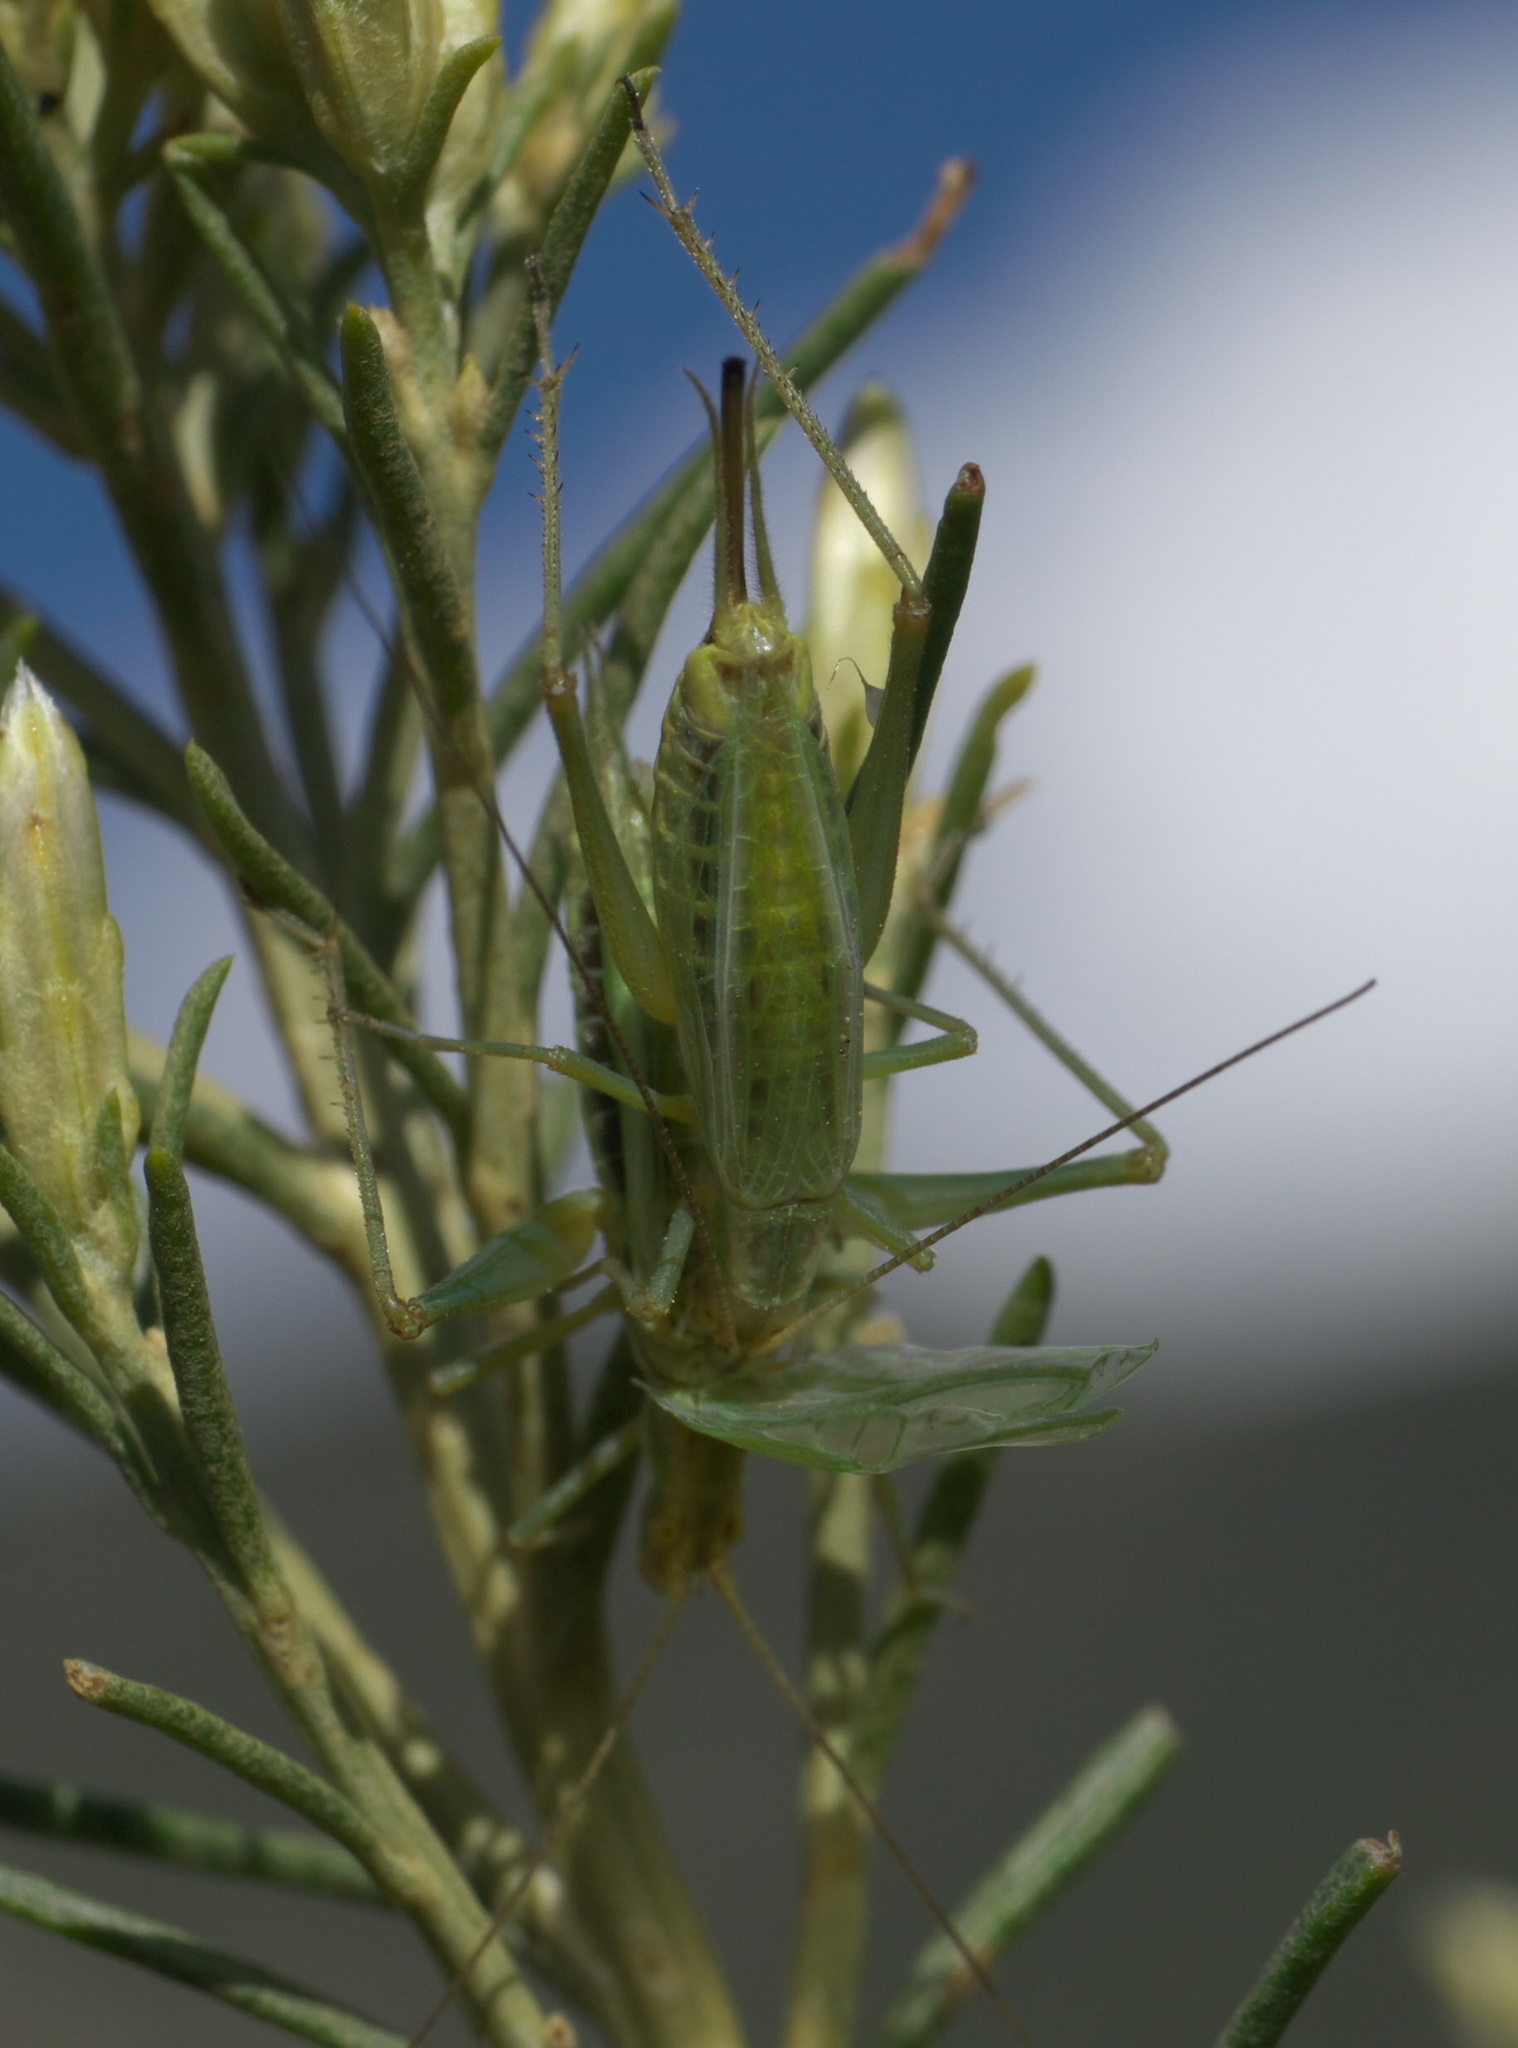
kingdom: Animalia
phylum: Arthropoda
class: Insecta
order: Orthoptera
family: Gryllidae
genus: Oecanthus
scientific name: Oecanthus argentinus
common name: Prairie tree cricket
